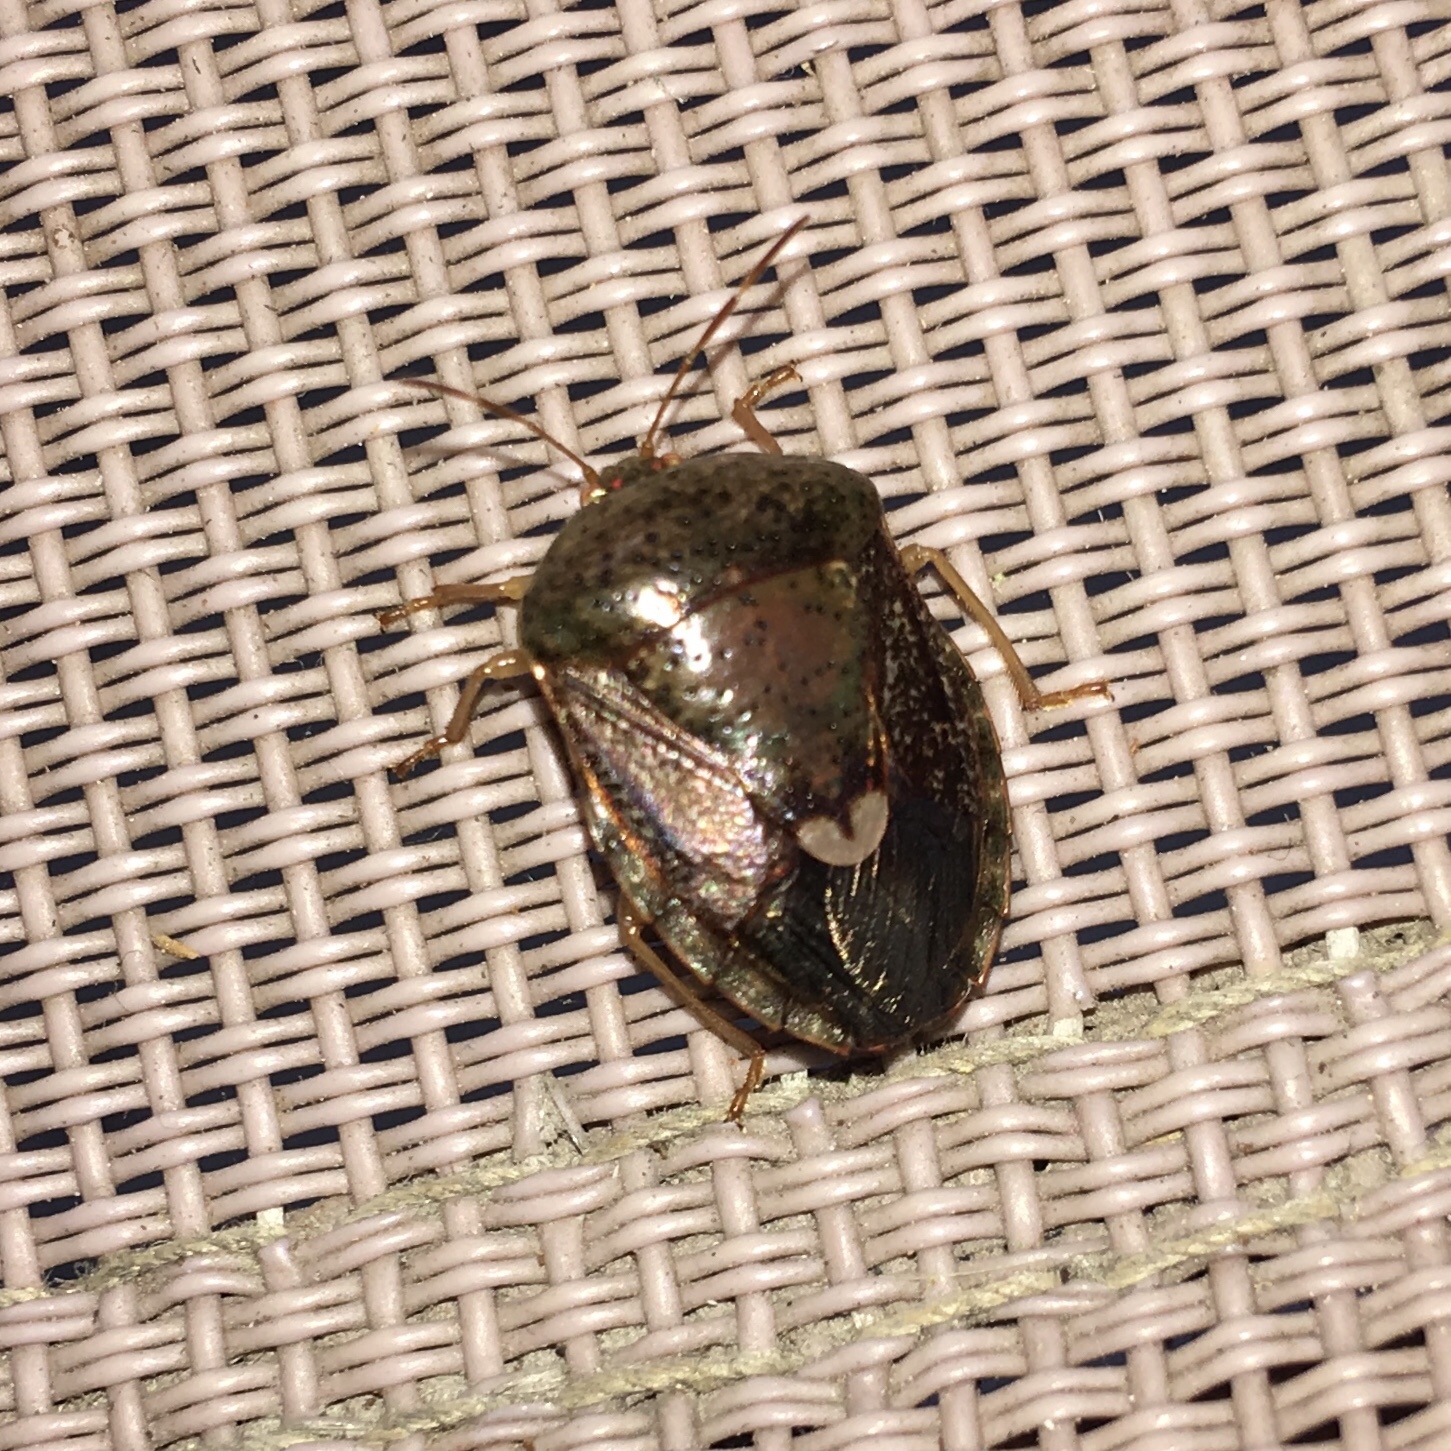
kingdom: Animalia
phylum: Arthropoda
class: Insecta
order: Hemiptera
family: Pentatomidae
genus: Edessa
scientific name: Edessa bifida
